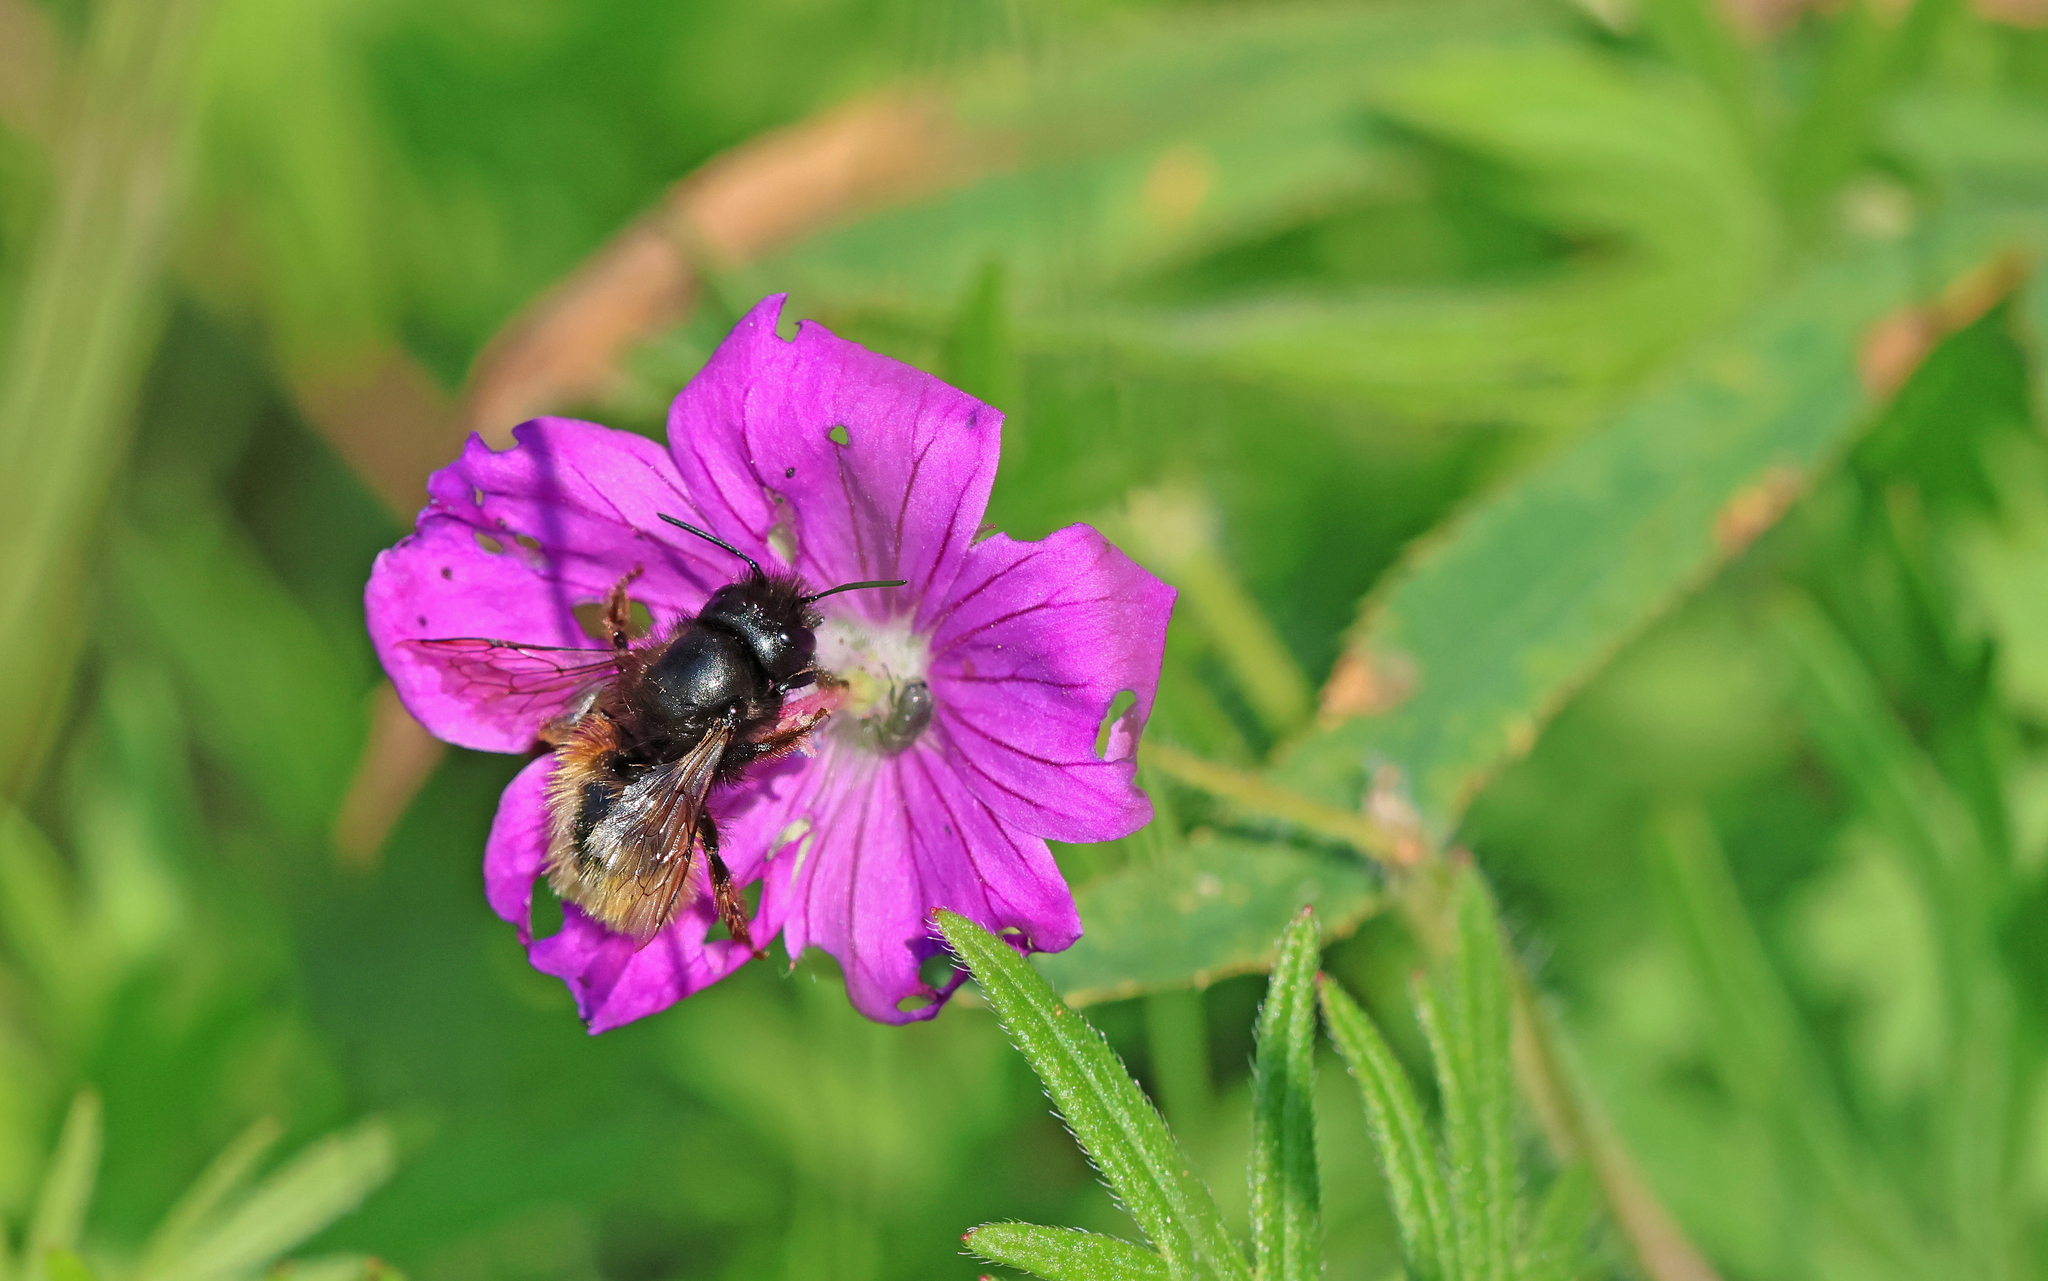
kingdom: Animalia
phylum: Arthropoda
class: Insecta
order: Hymenoptera
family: Megachilidae
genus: Osmia
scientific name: Osmia cornuta
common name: Mason bee
